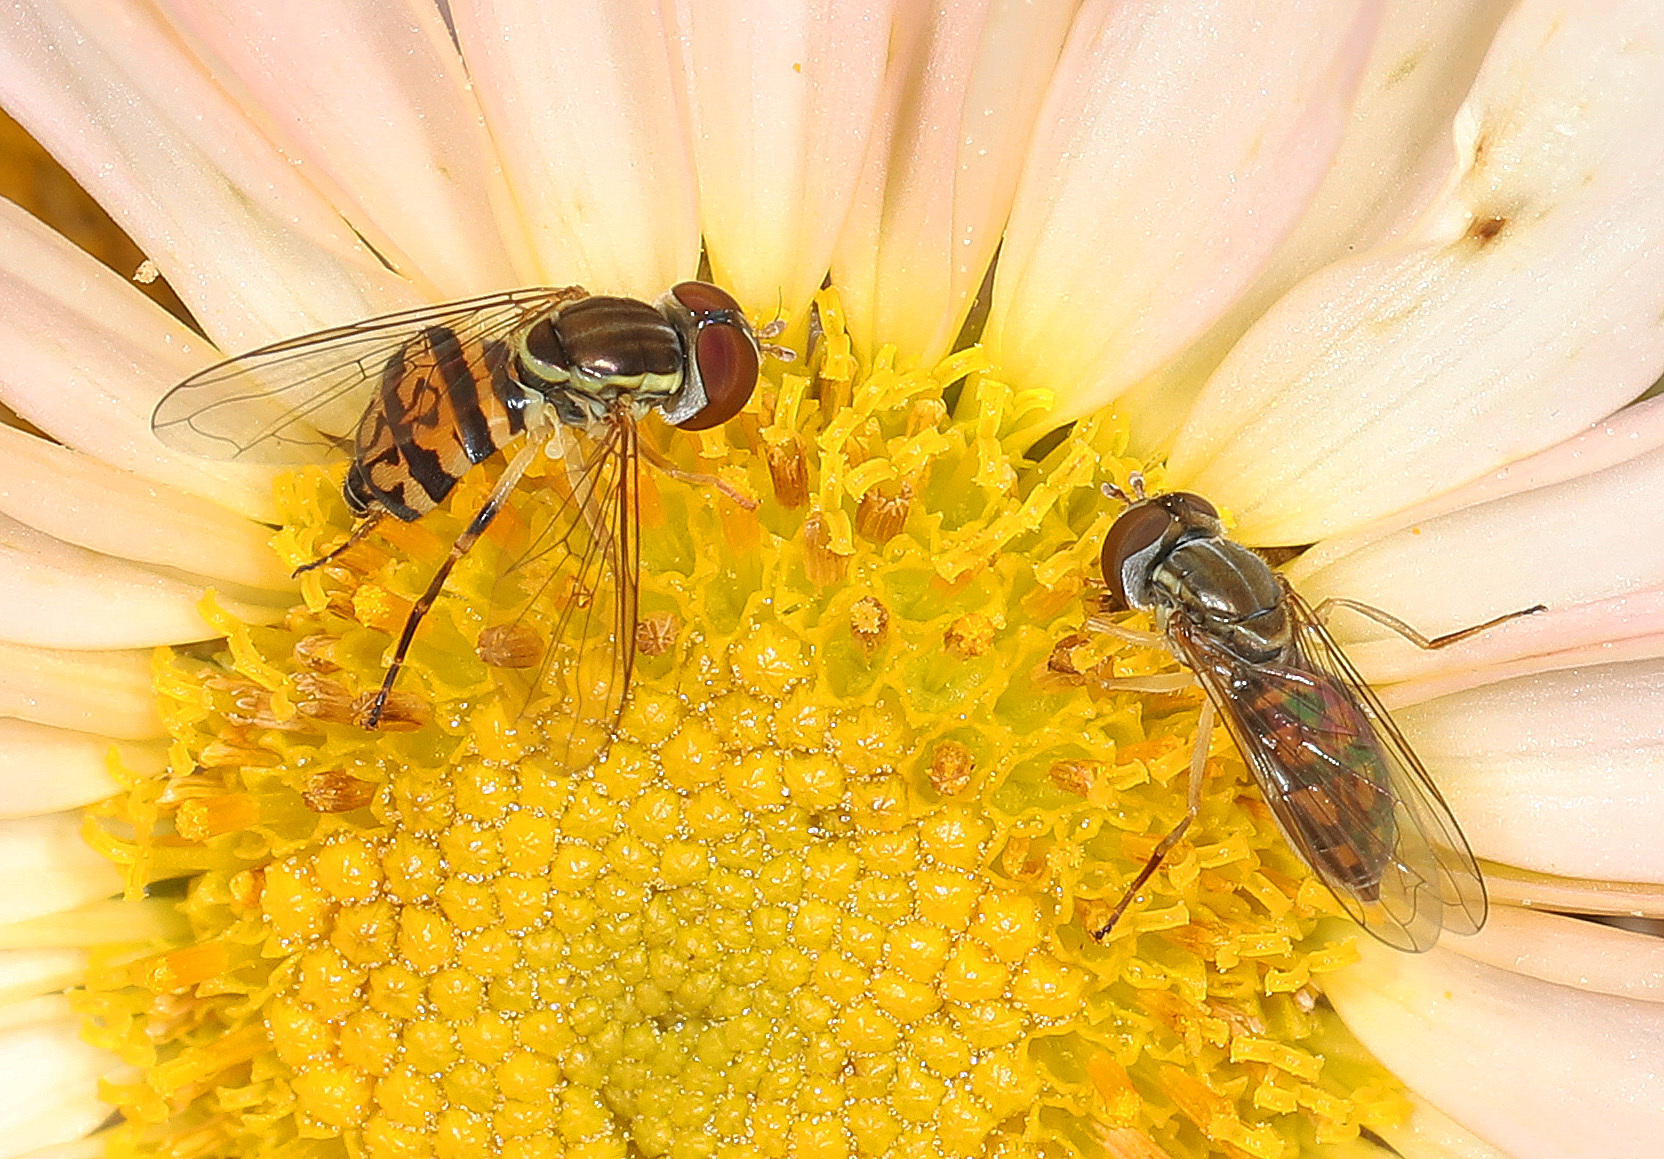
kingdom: Animalia
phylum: Arthropoda
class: Insecta
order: Diptera
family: Syrphidae
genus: Toxomerus
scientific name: Toxomerus geminatus
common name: Eastern calligrapher
